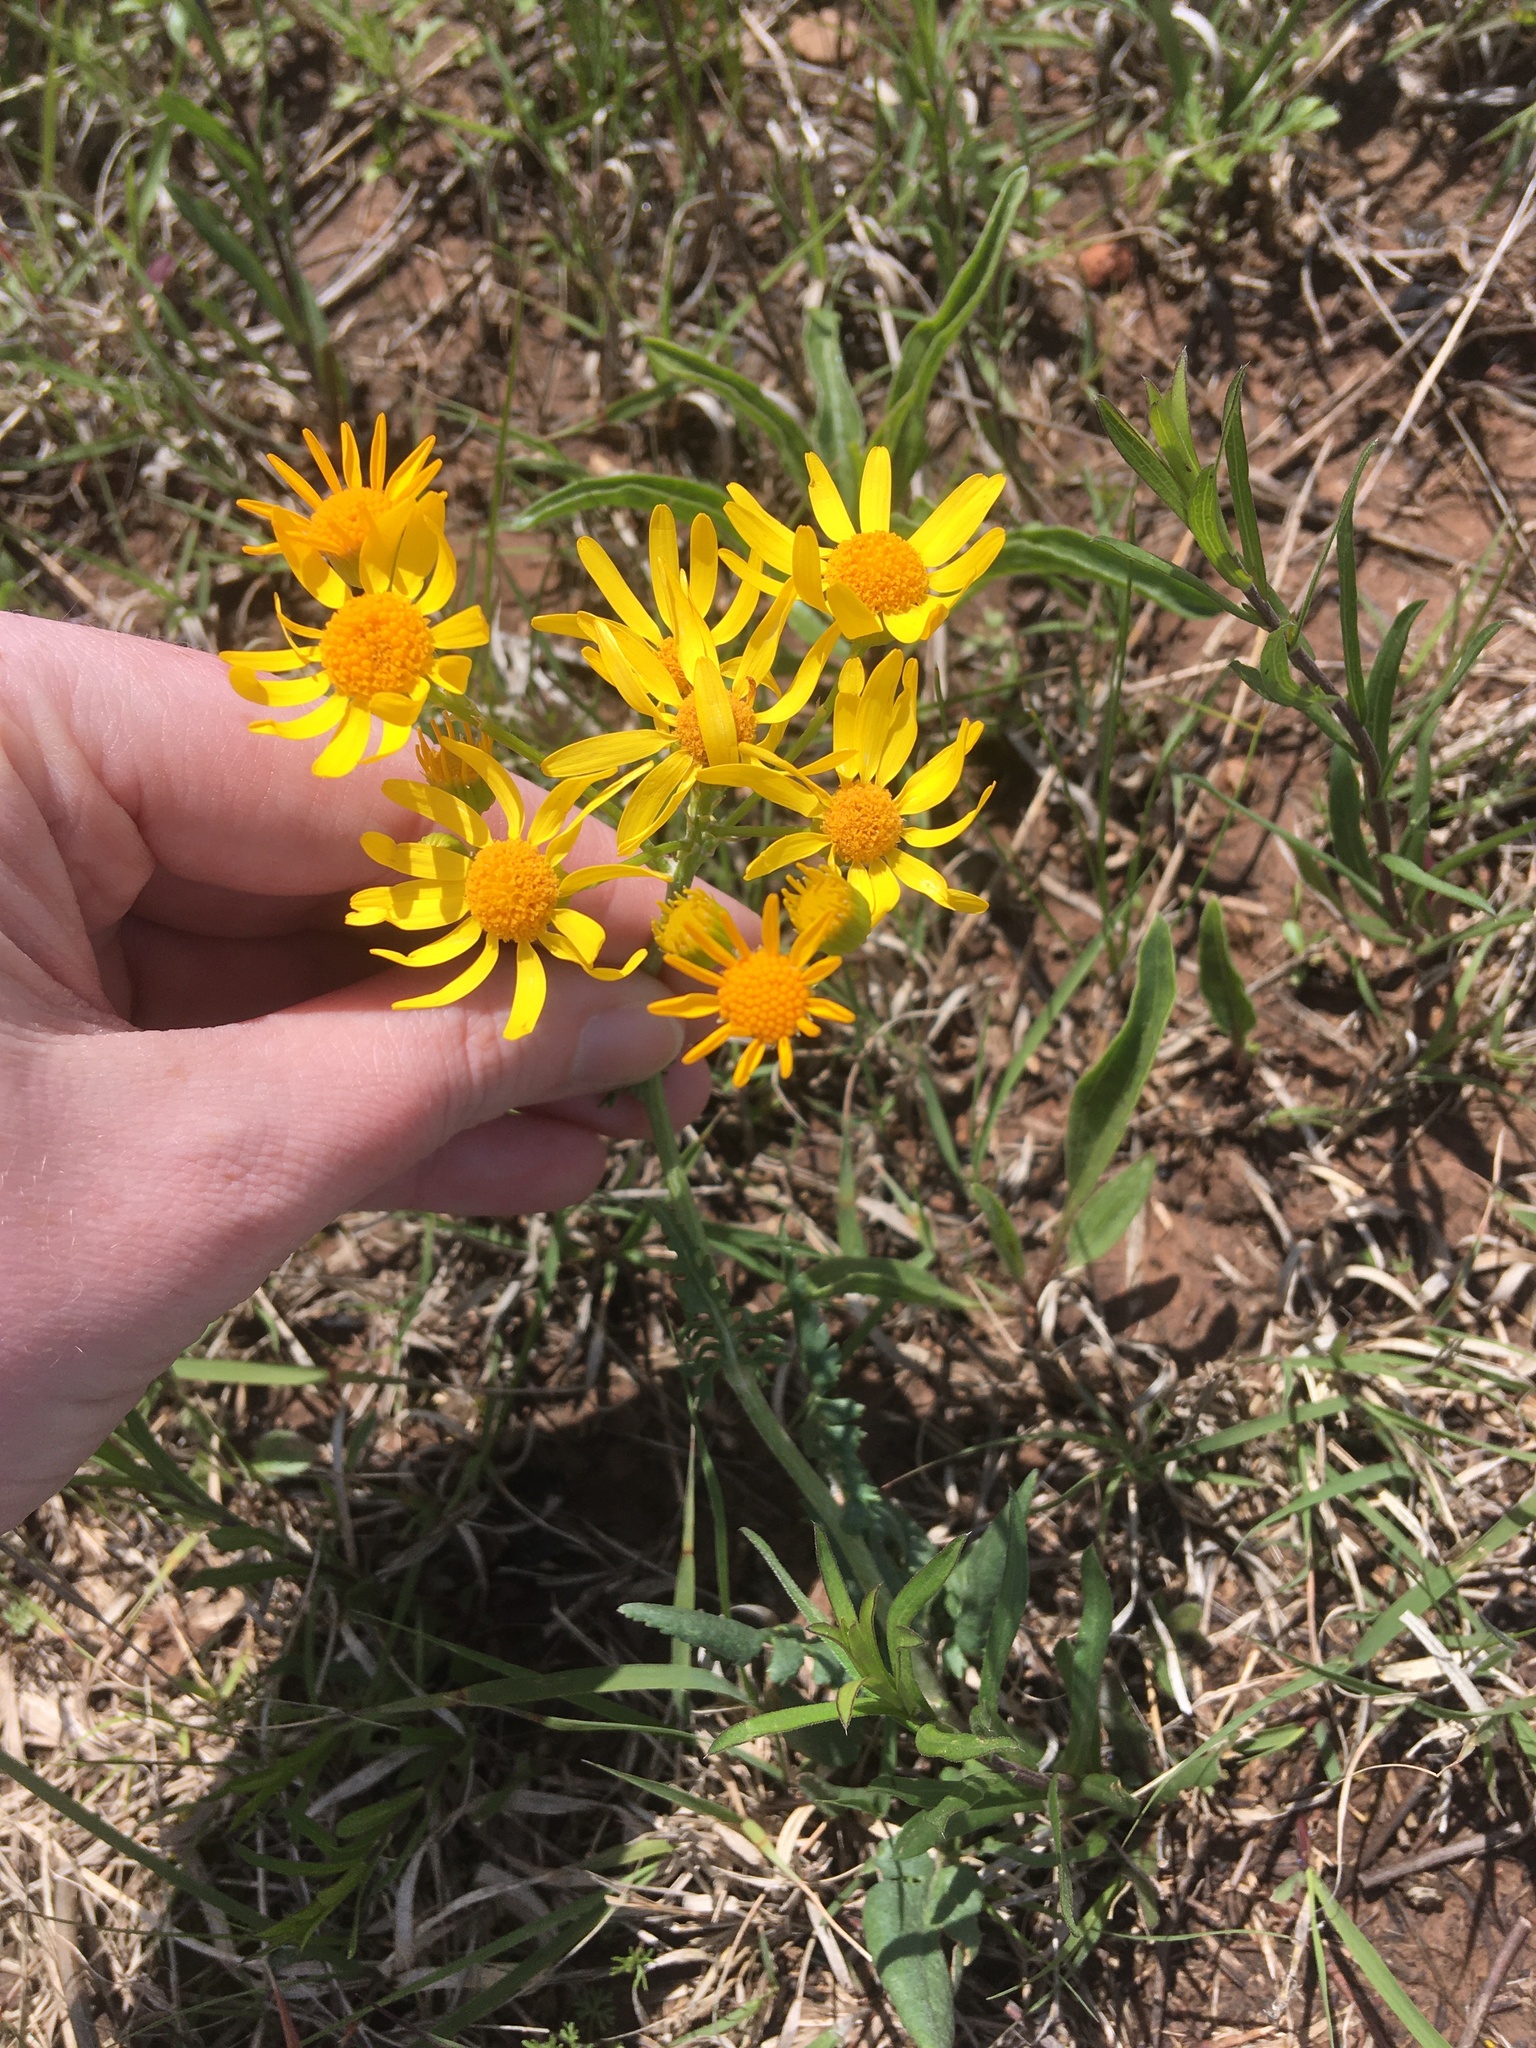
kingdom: Plantae
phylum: Tracheophyta
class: Magnoliopsida
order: Asterales
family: Asteraceae
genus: Packera
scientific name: Packera plattensis
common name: Prairie groundsel
